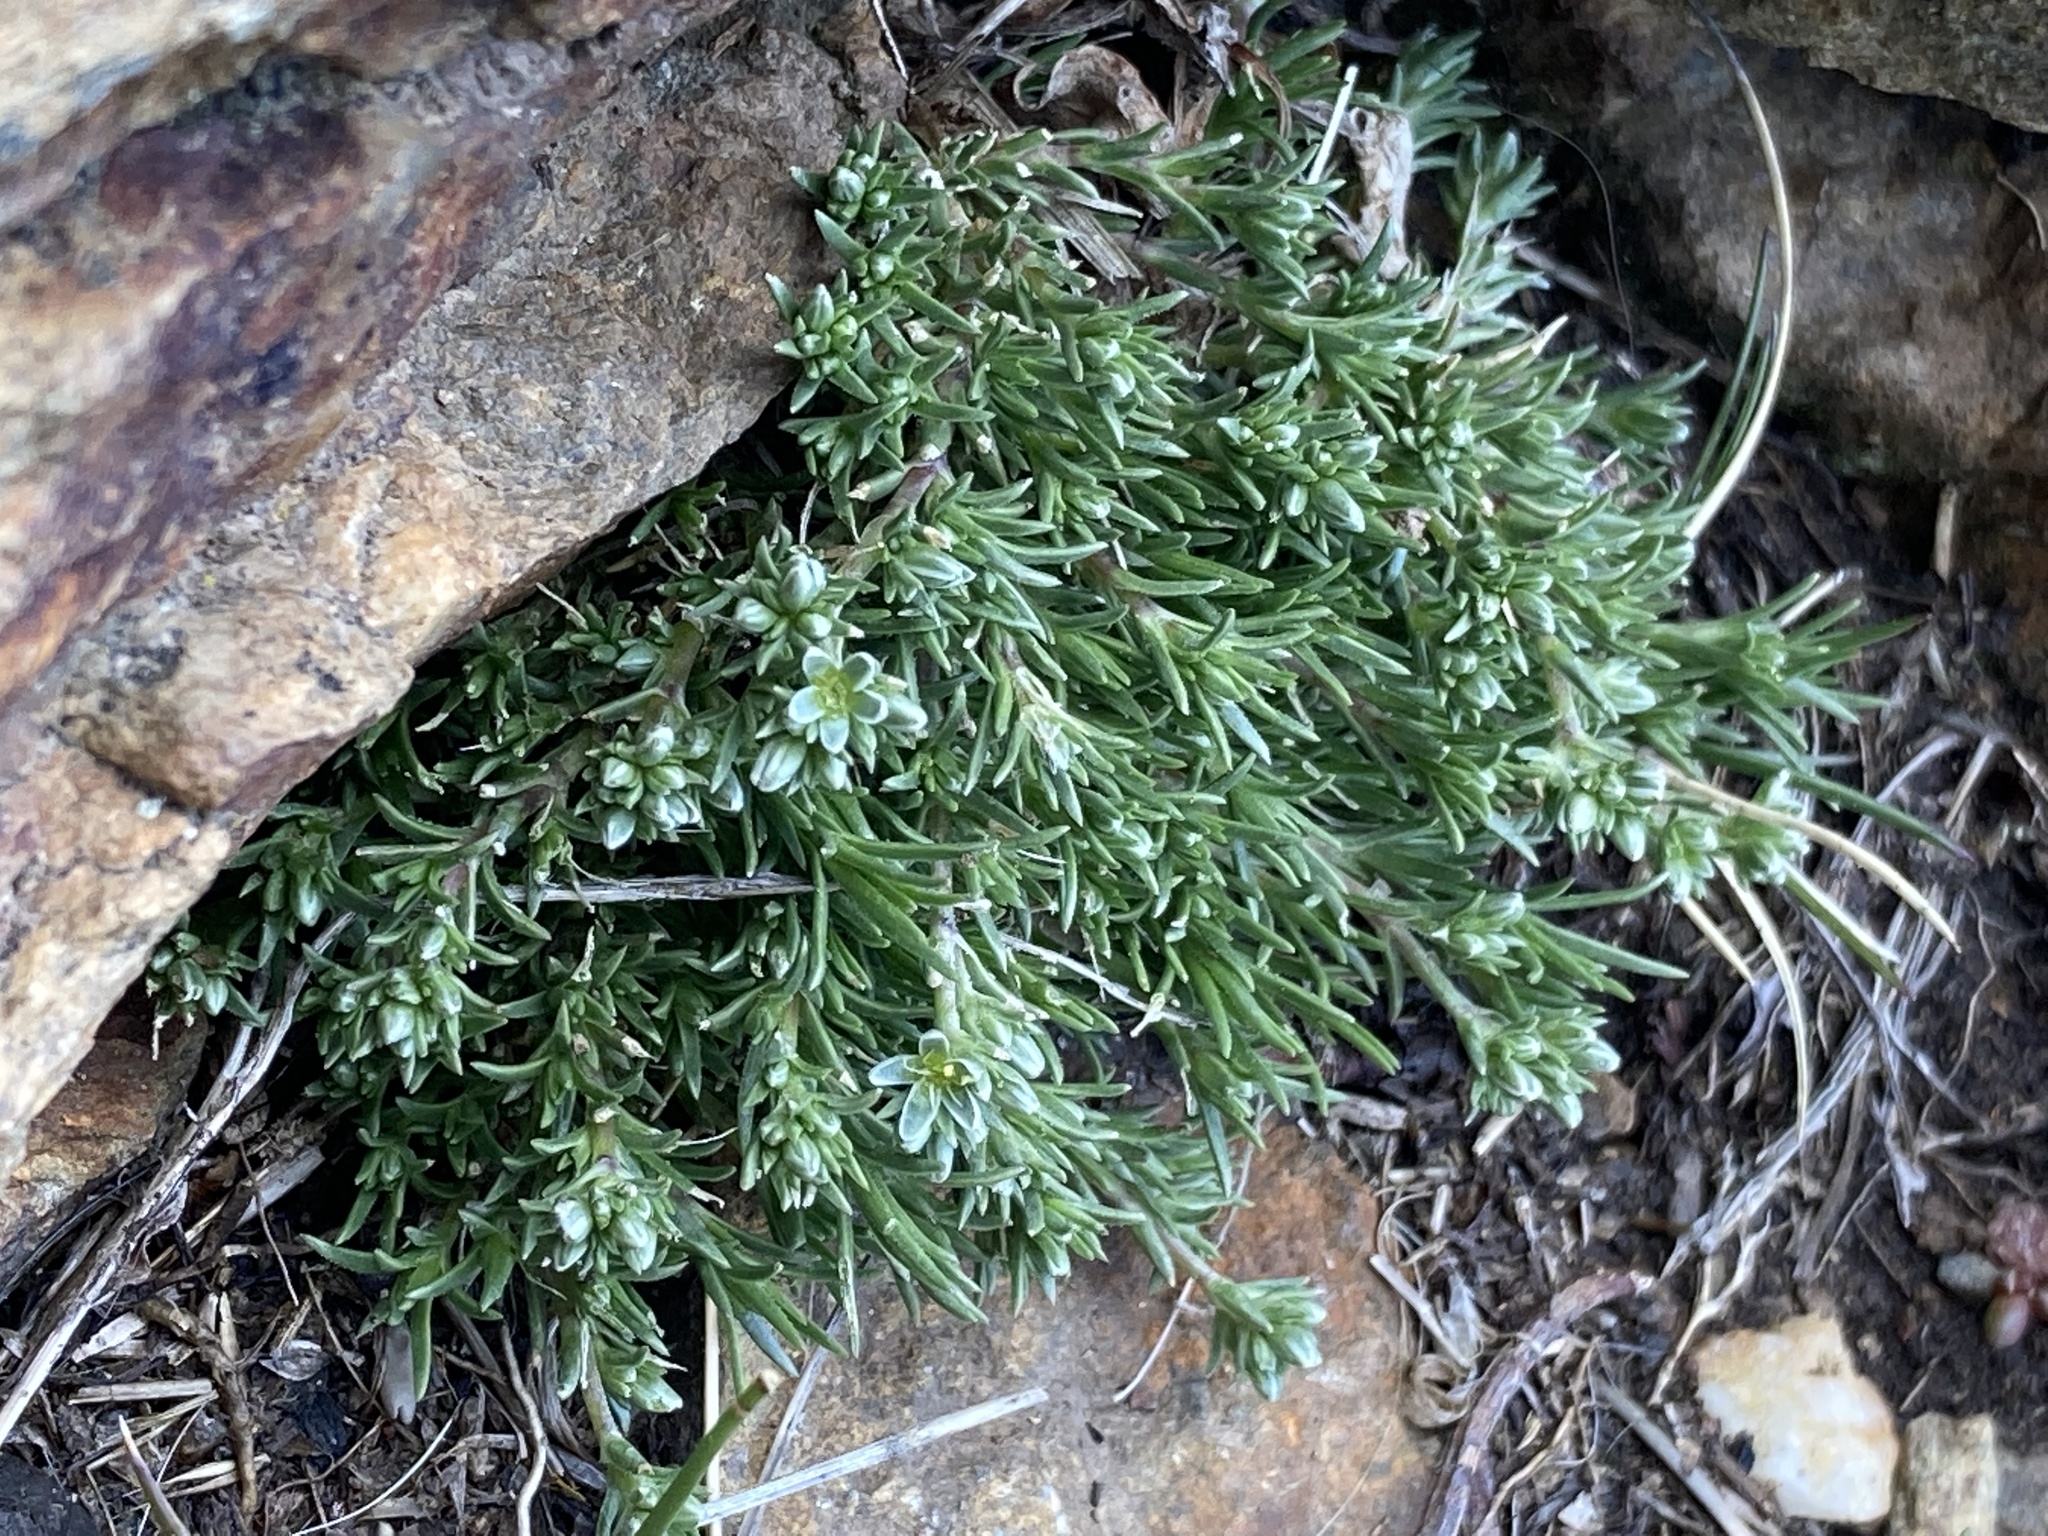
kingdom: Plantae
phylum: Tracheophyta
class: Magnoliopsida
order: Caryophyllales
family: Caryophyllaceae
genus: Scleranthus
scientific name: Scleranthus perennis
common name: Perennial knawel
